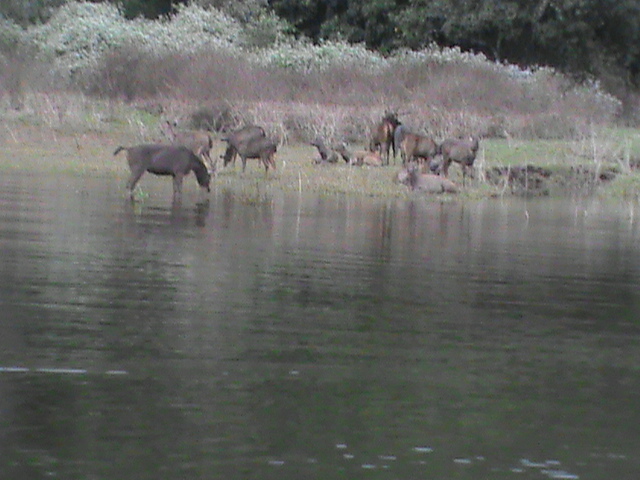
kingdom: Animalia
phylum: Chordata
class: Mammalia
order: Artiodactyla
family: Cervidae
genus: Rusa
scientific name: Rusa unicolor
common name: Sambar
